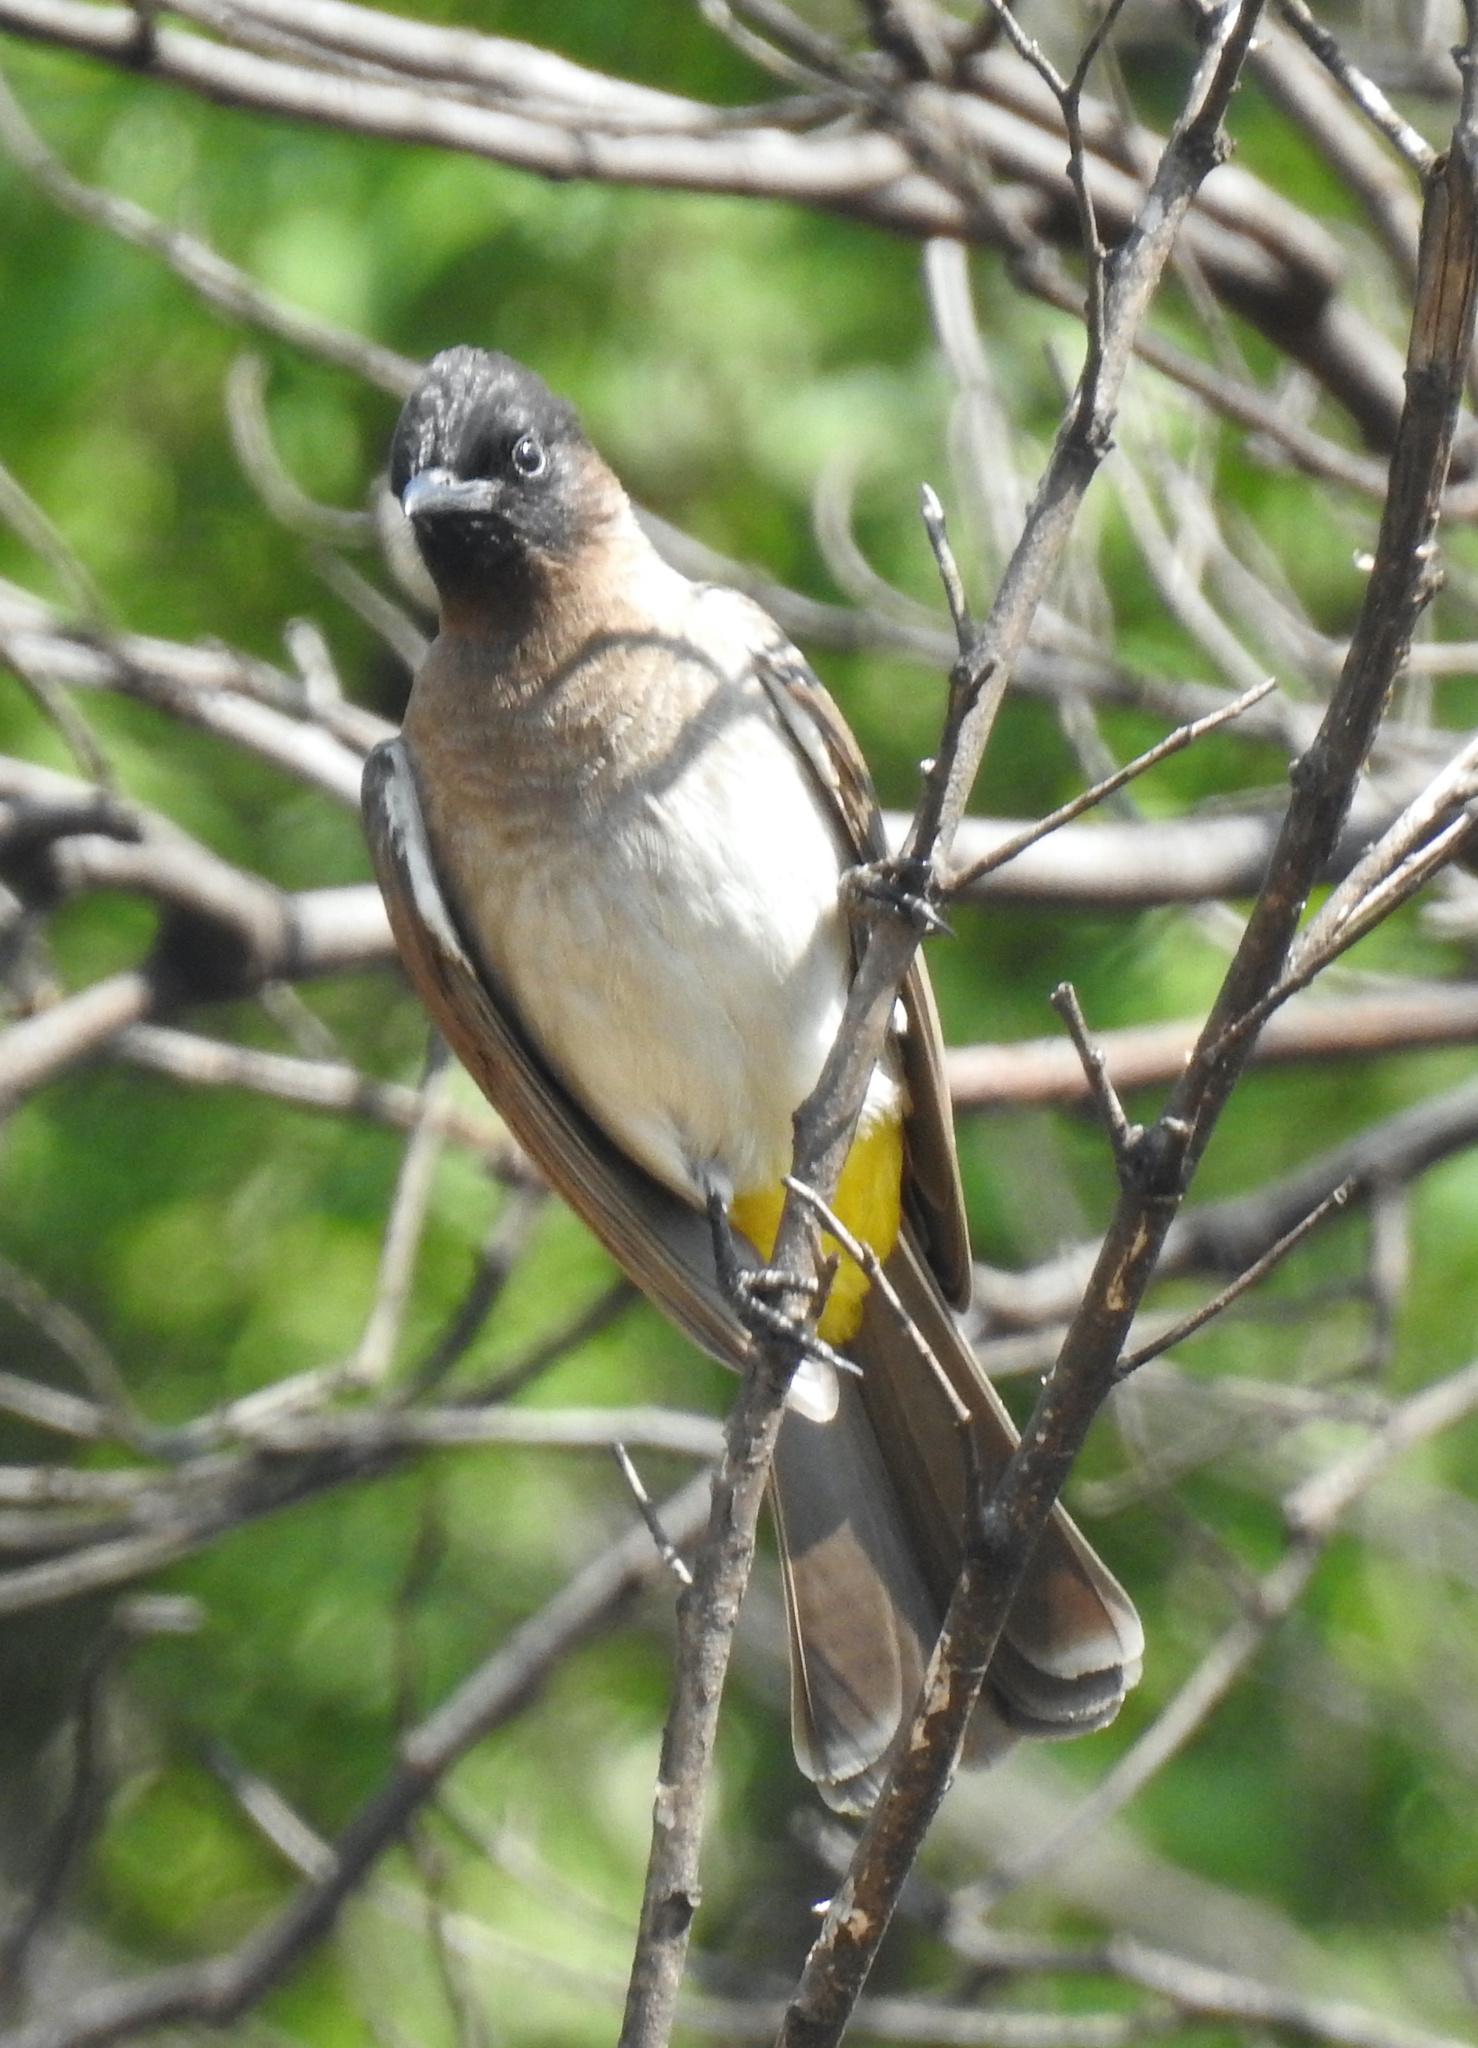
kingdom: Animalia
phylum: Chordata
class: Aves
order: Passeriformes
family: Pycnonotidae
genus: Pycnonotus
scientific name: Pycnonotus barbatus
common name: Common bulbul
